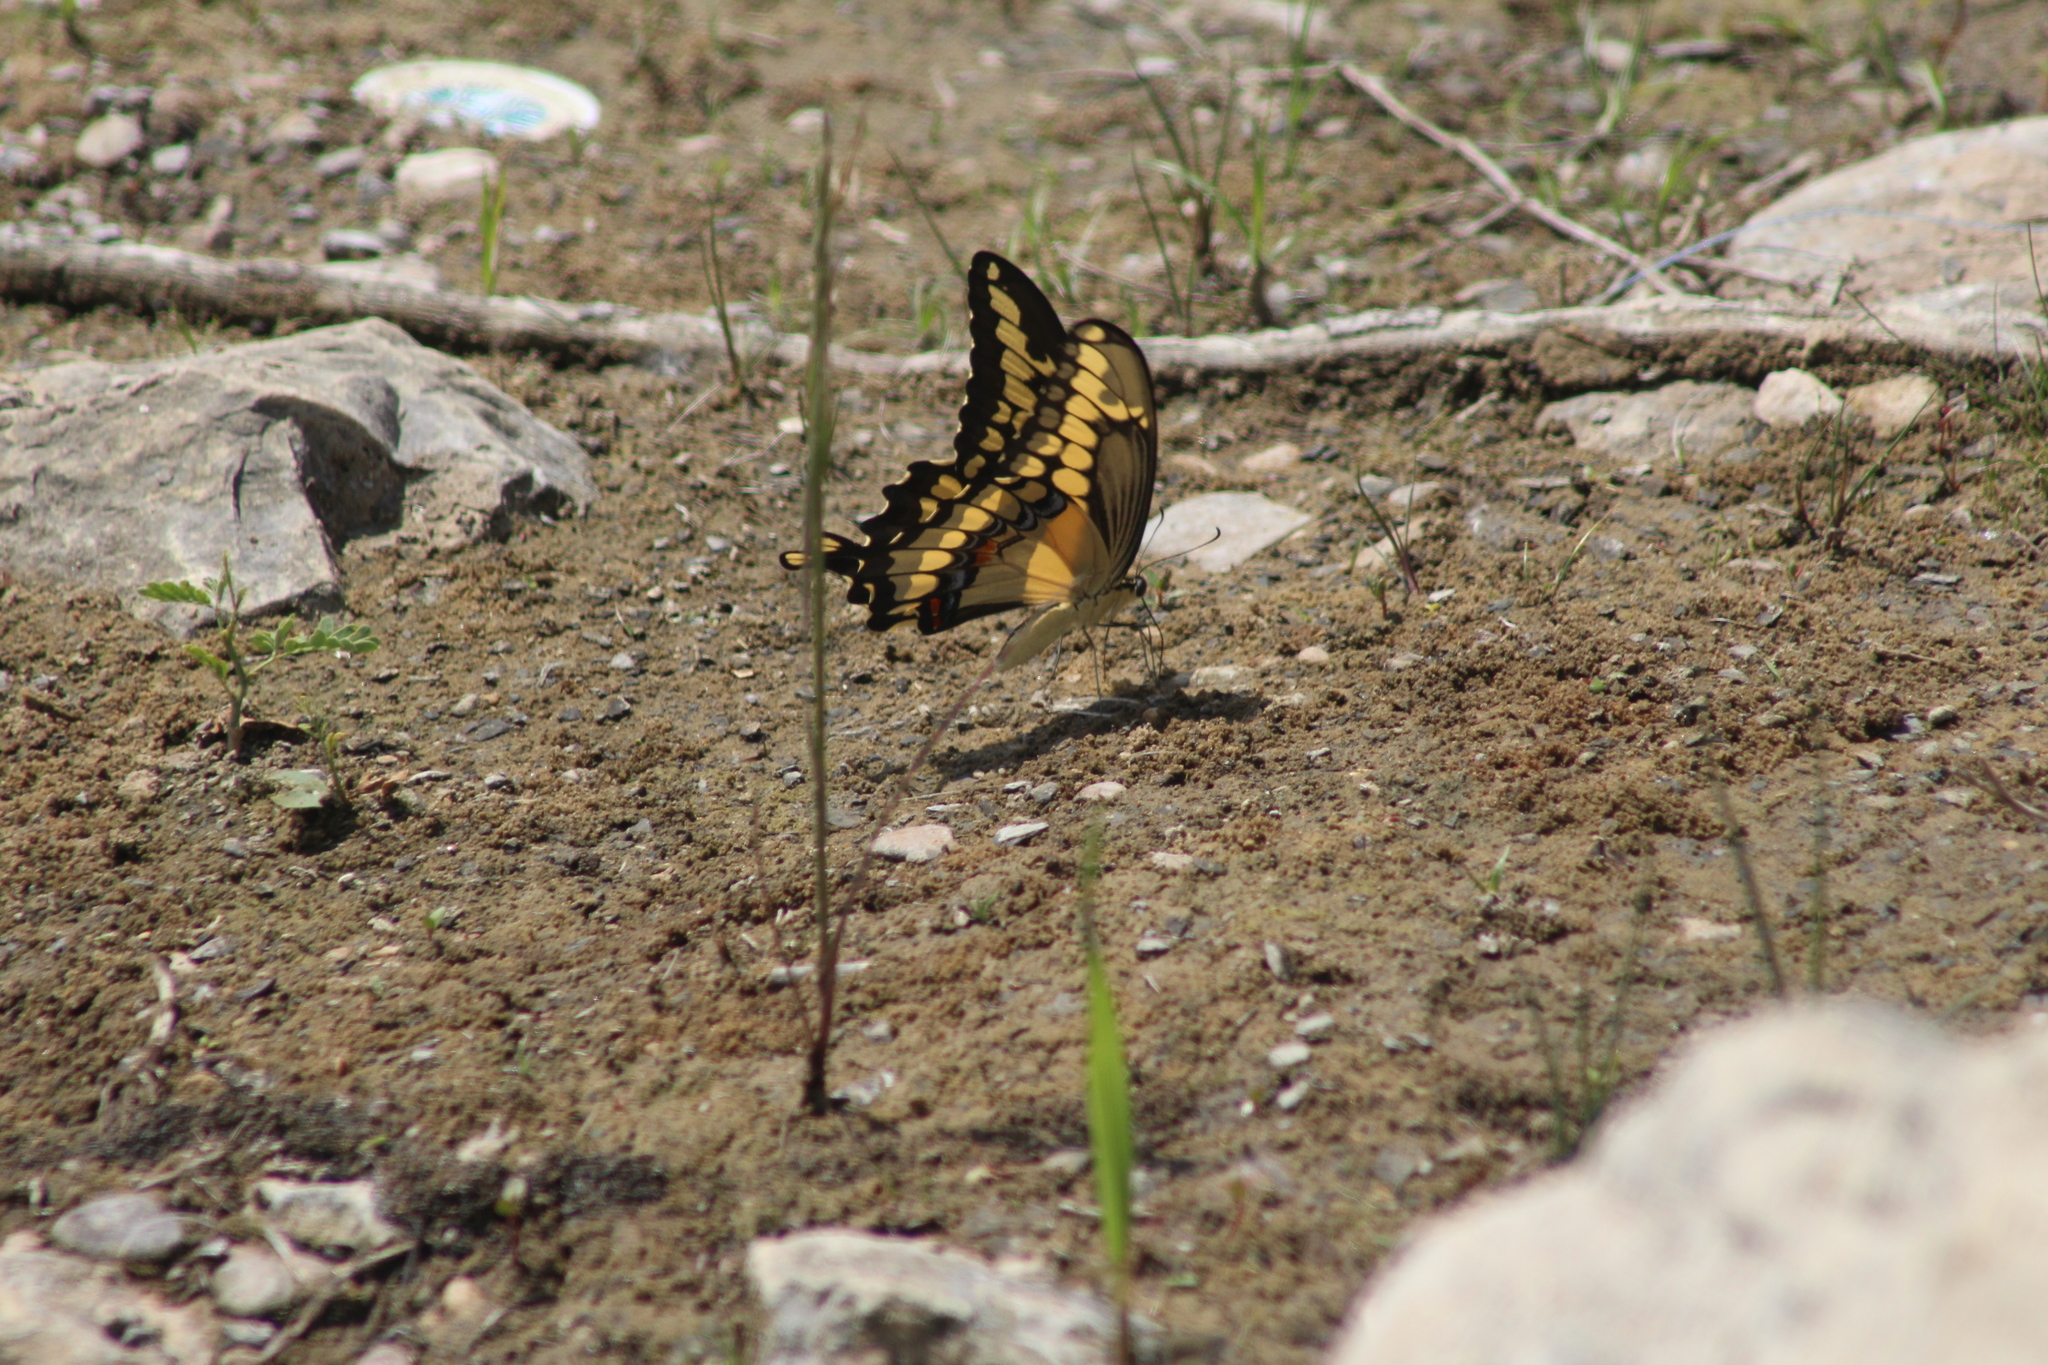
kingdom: Animalia
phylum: Arthropoda
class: Insecta
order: Lepidoptera
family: Papilionidae
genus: Papilio
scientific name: Papilio cresphontes
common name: Giant swallowtail
